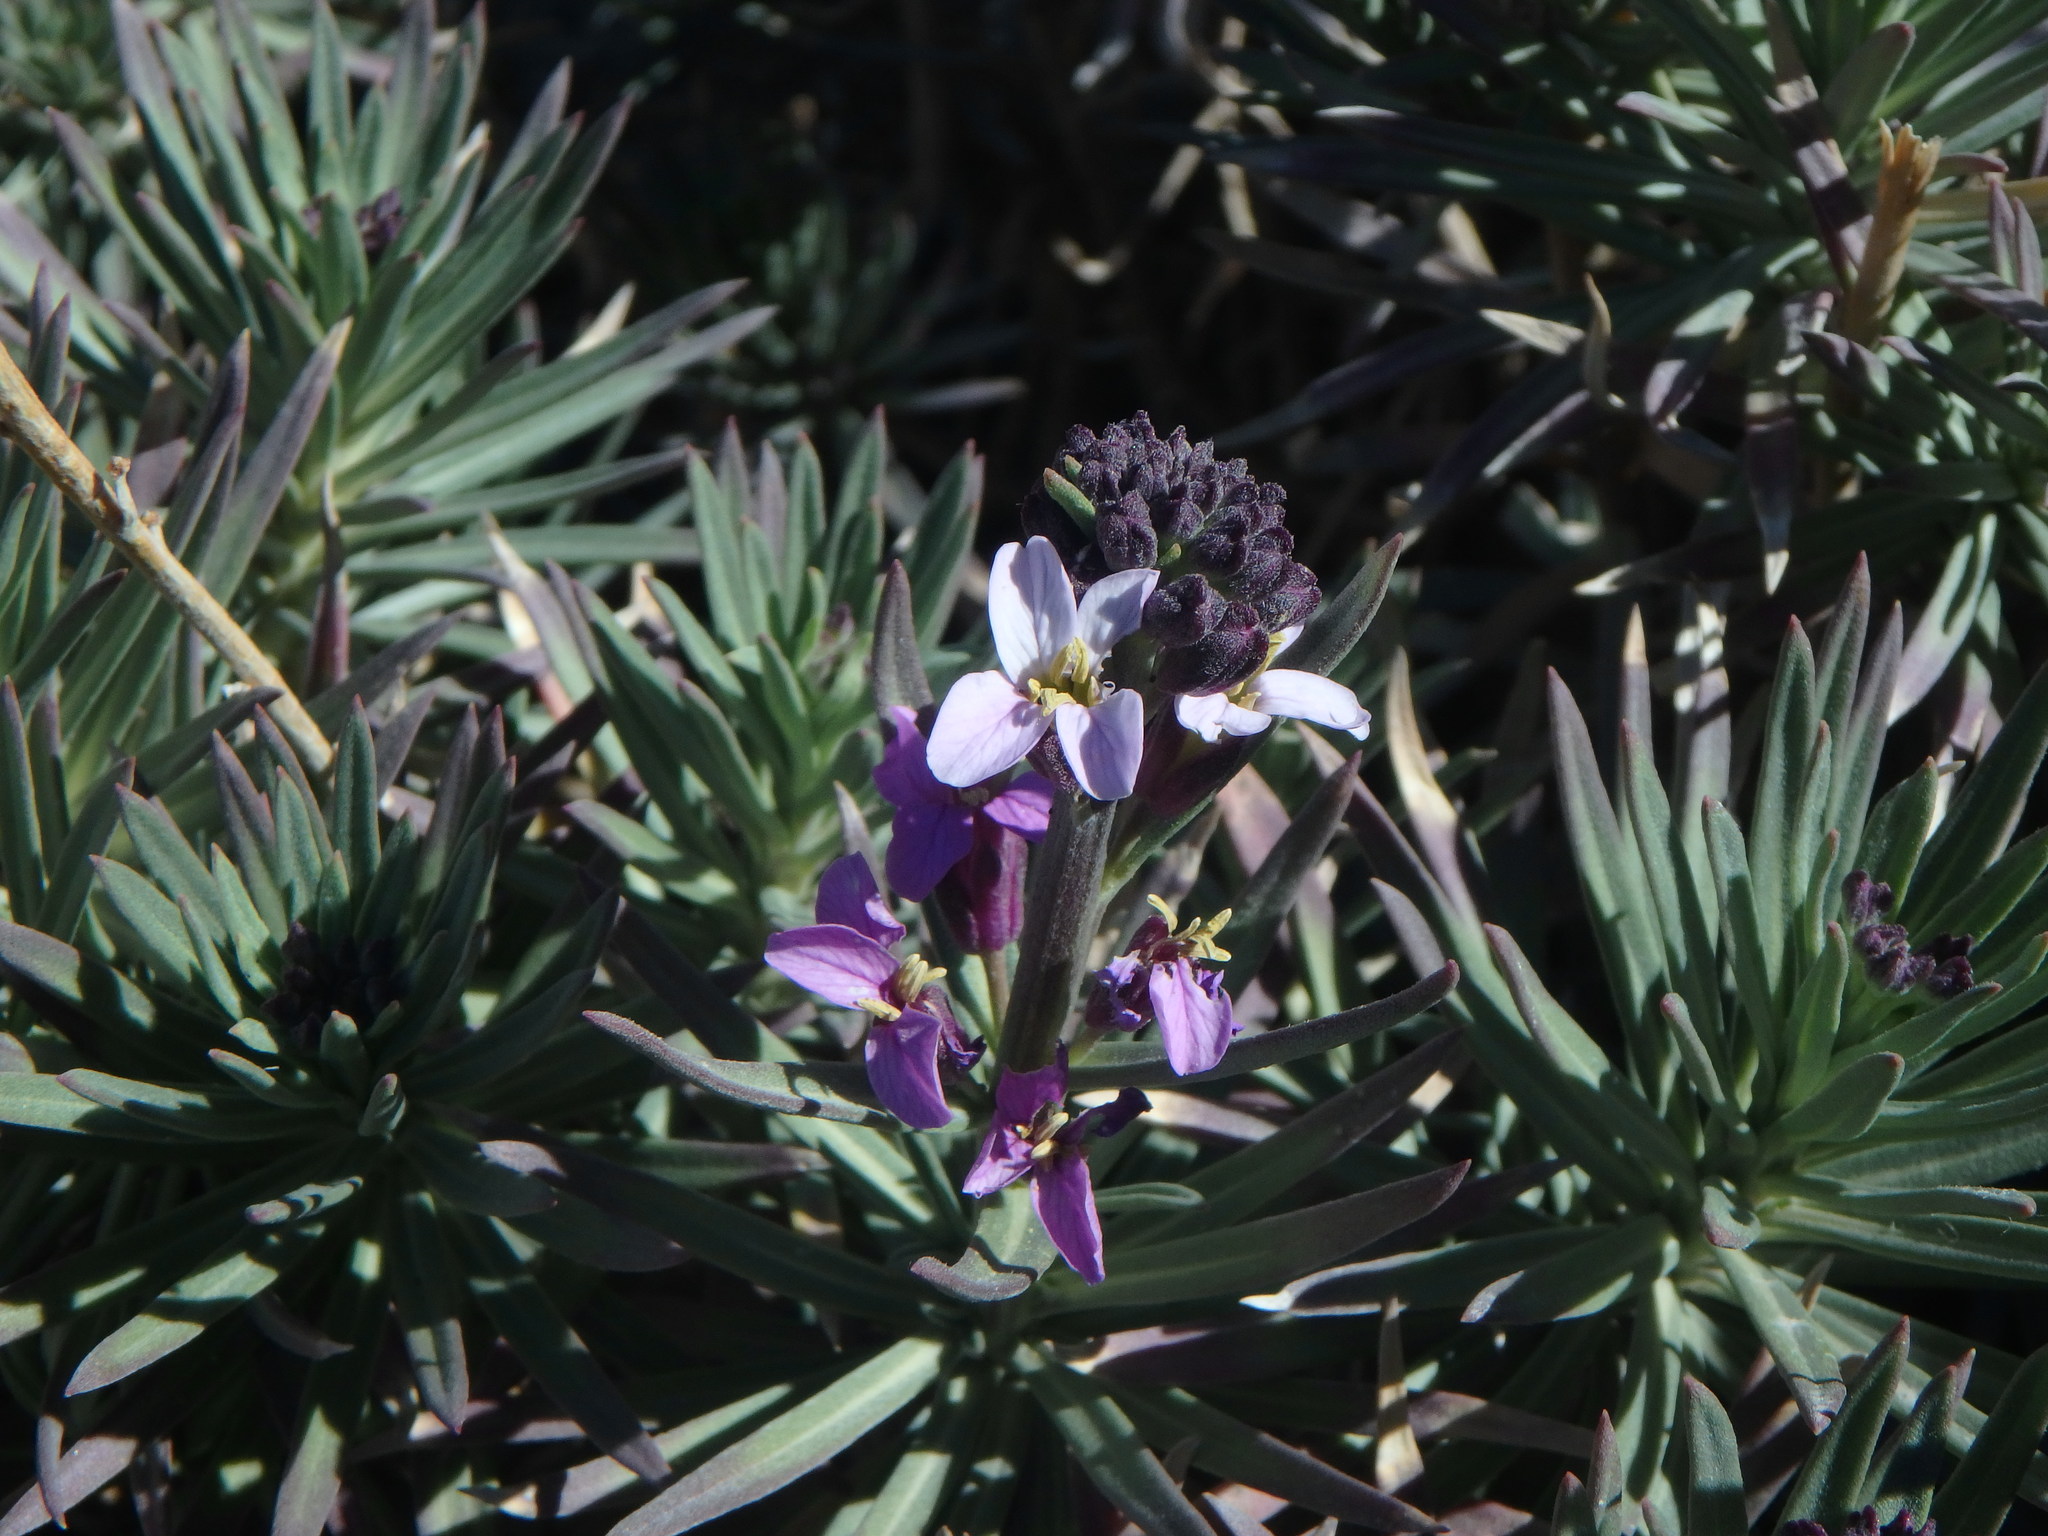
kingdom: Plantae
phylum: Tracheophyta
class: Magnoliopsida
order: Brassicales
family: Brassicaceae
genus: Erysimum
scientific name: Erysimum scoparium
